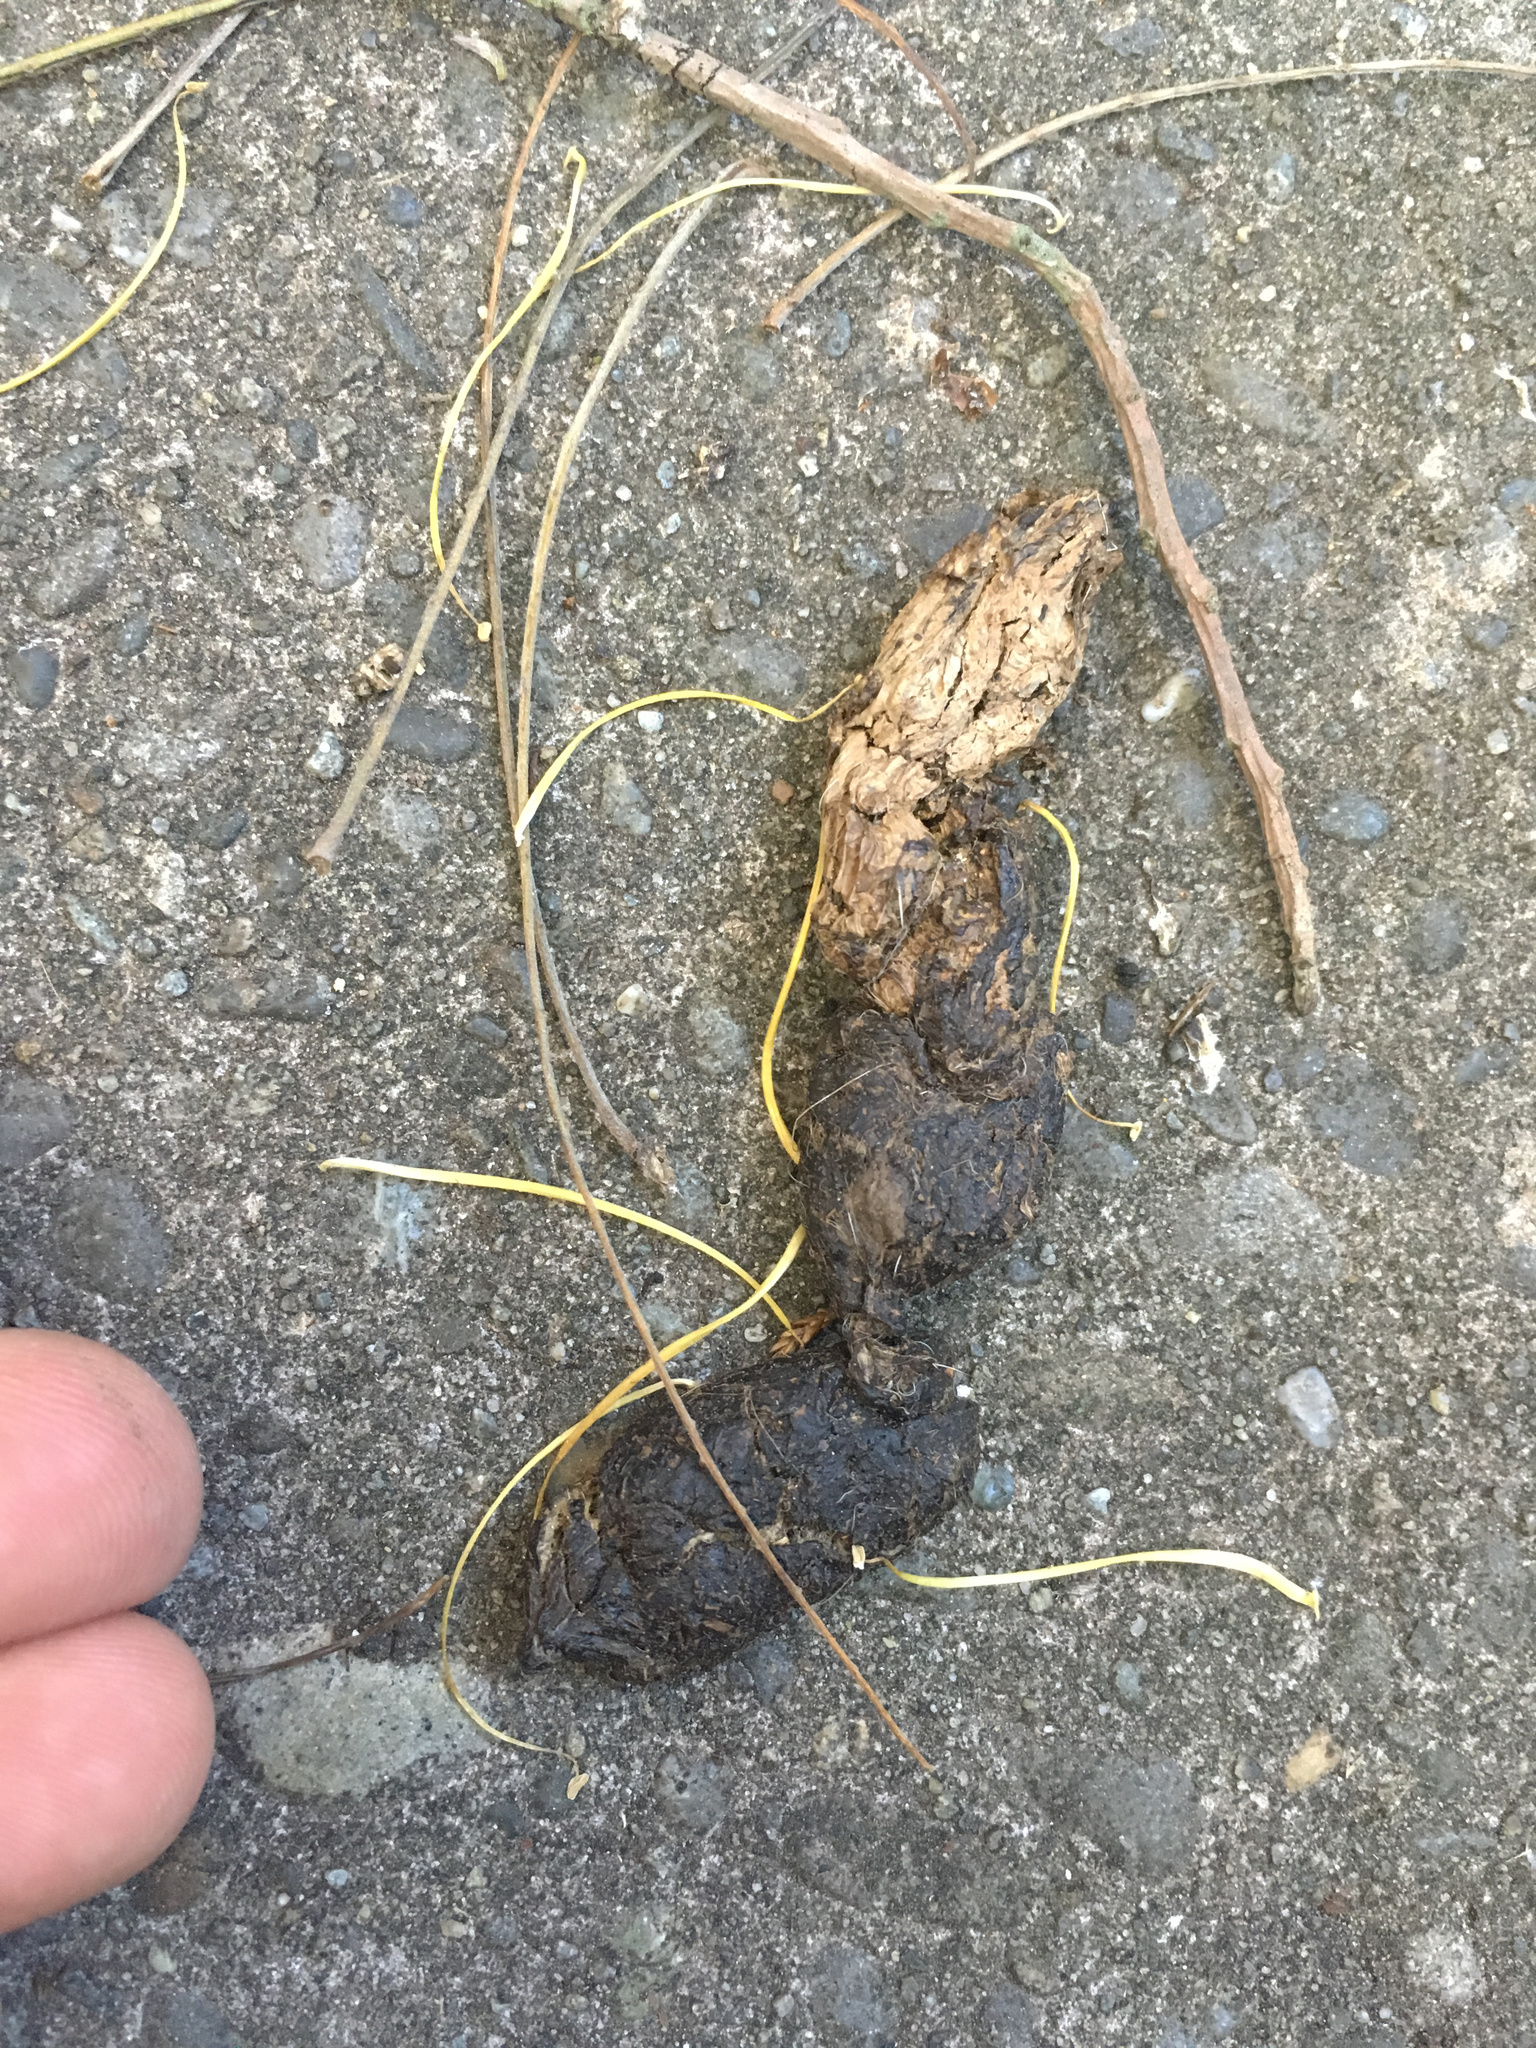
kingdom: Animalia
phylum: Chordata
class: Mammalia
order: Carnivora
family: Felidae
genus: Felis
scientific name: Felis catus
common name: Domestic cat
